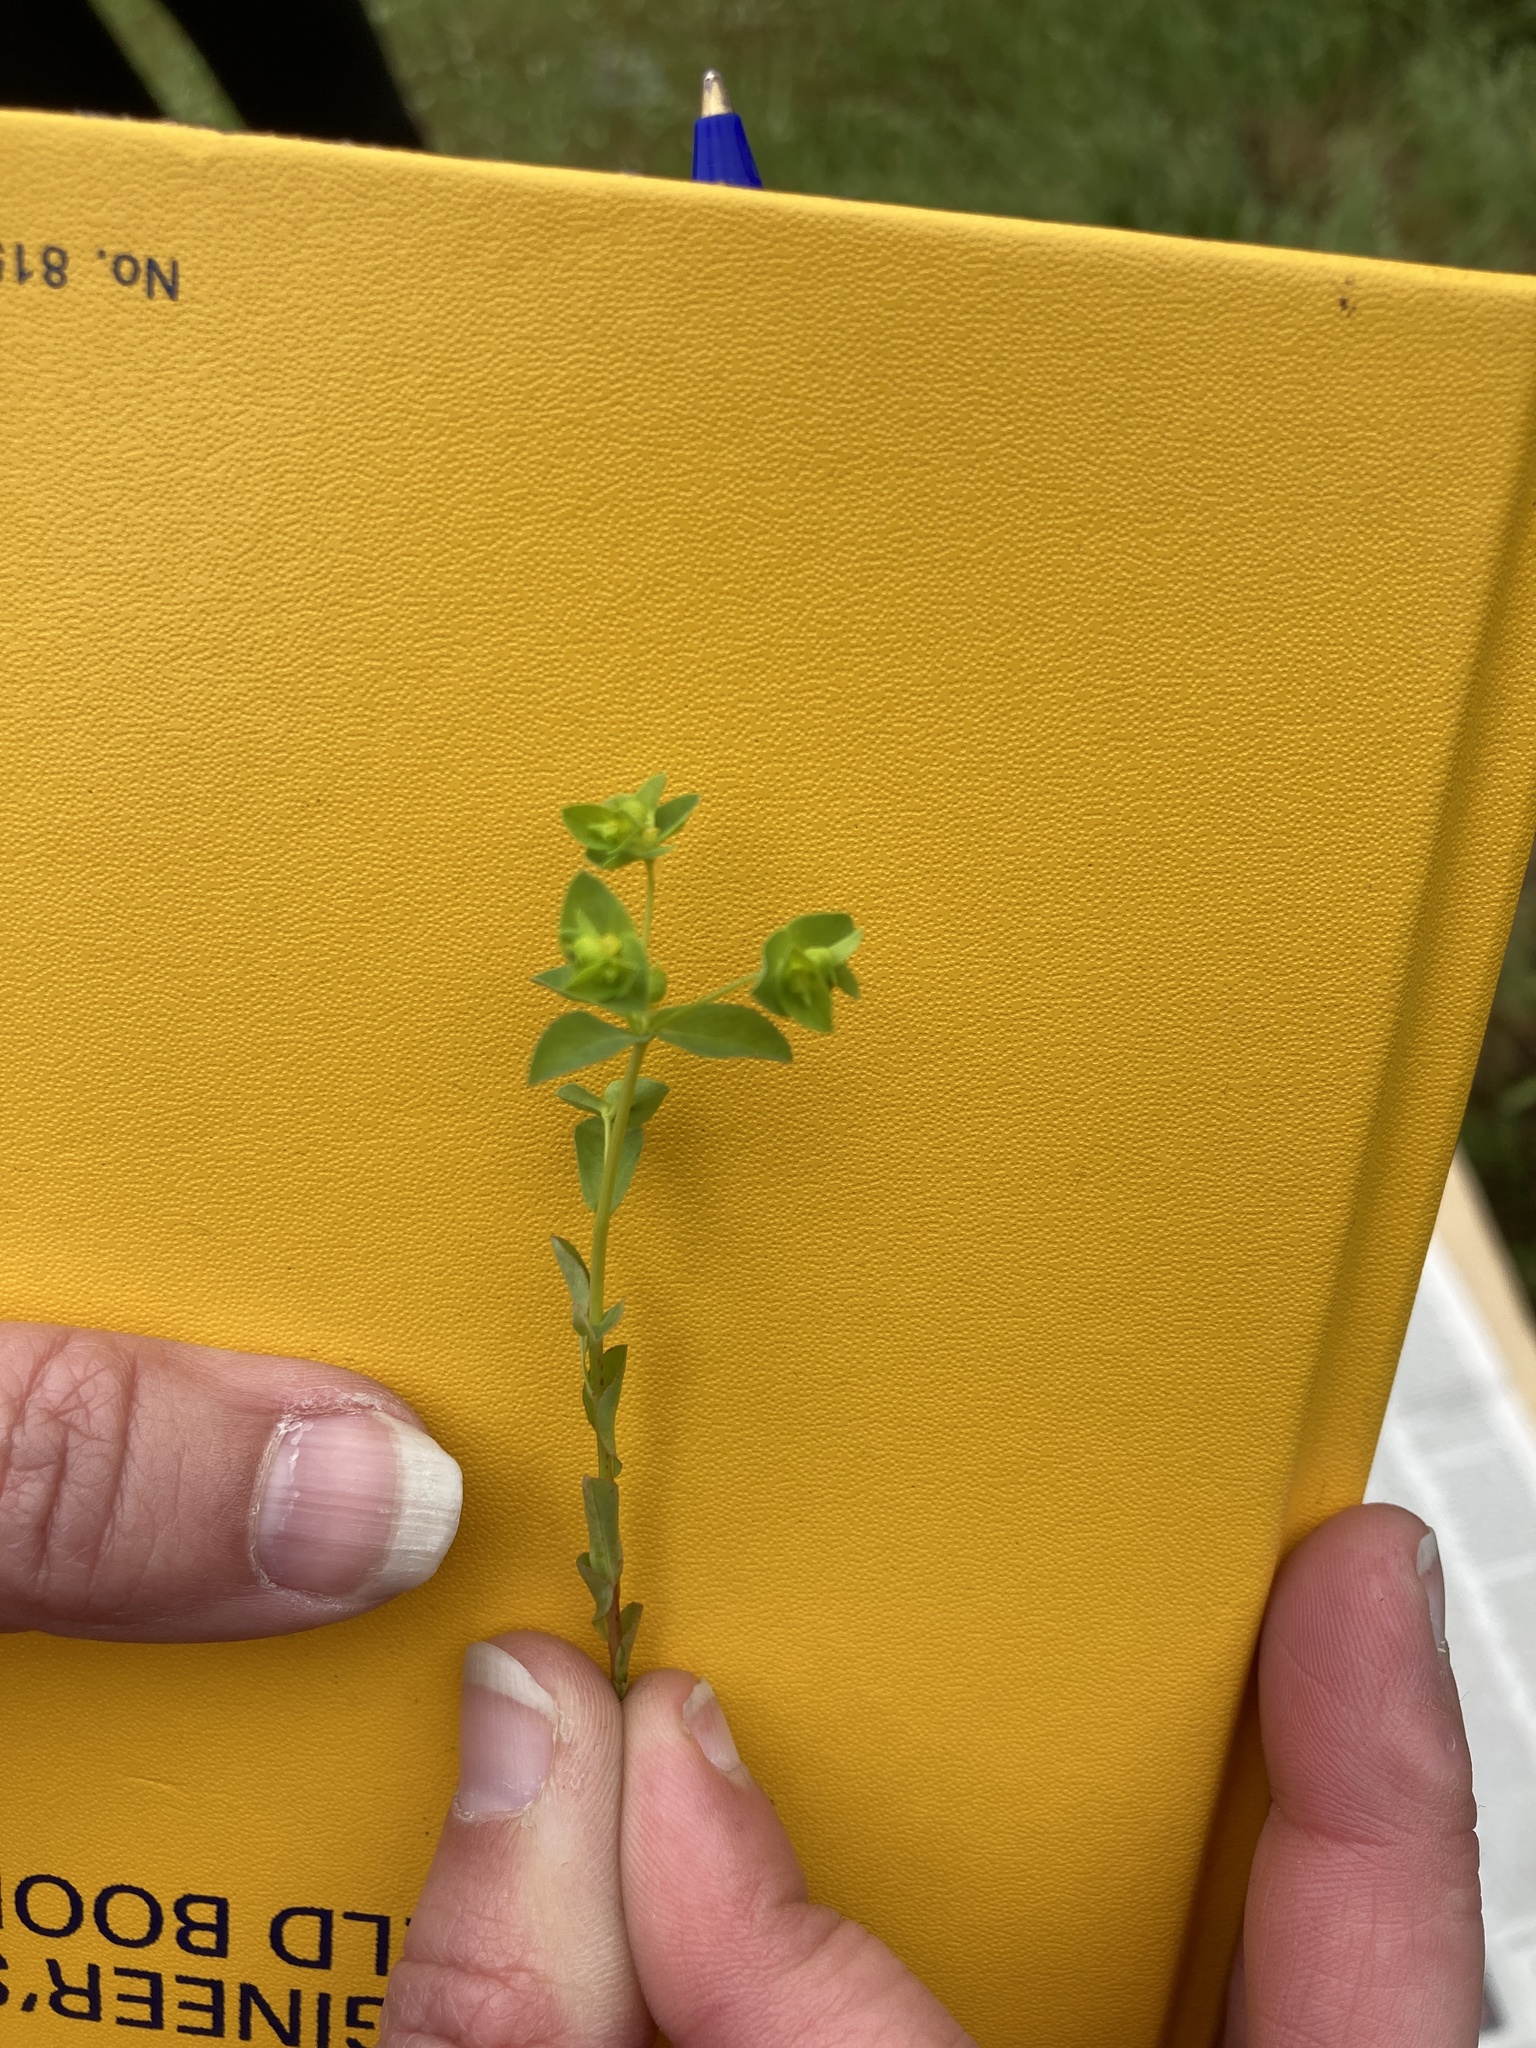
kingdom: Plantae
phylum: Tracheophyta
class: Magnoliopsida
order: Malpighiales
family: Euphorbiaceae
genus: Euphorbia
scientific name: Euphorbia spathulata
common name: Blunt spurge
